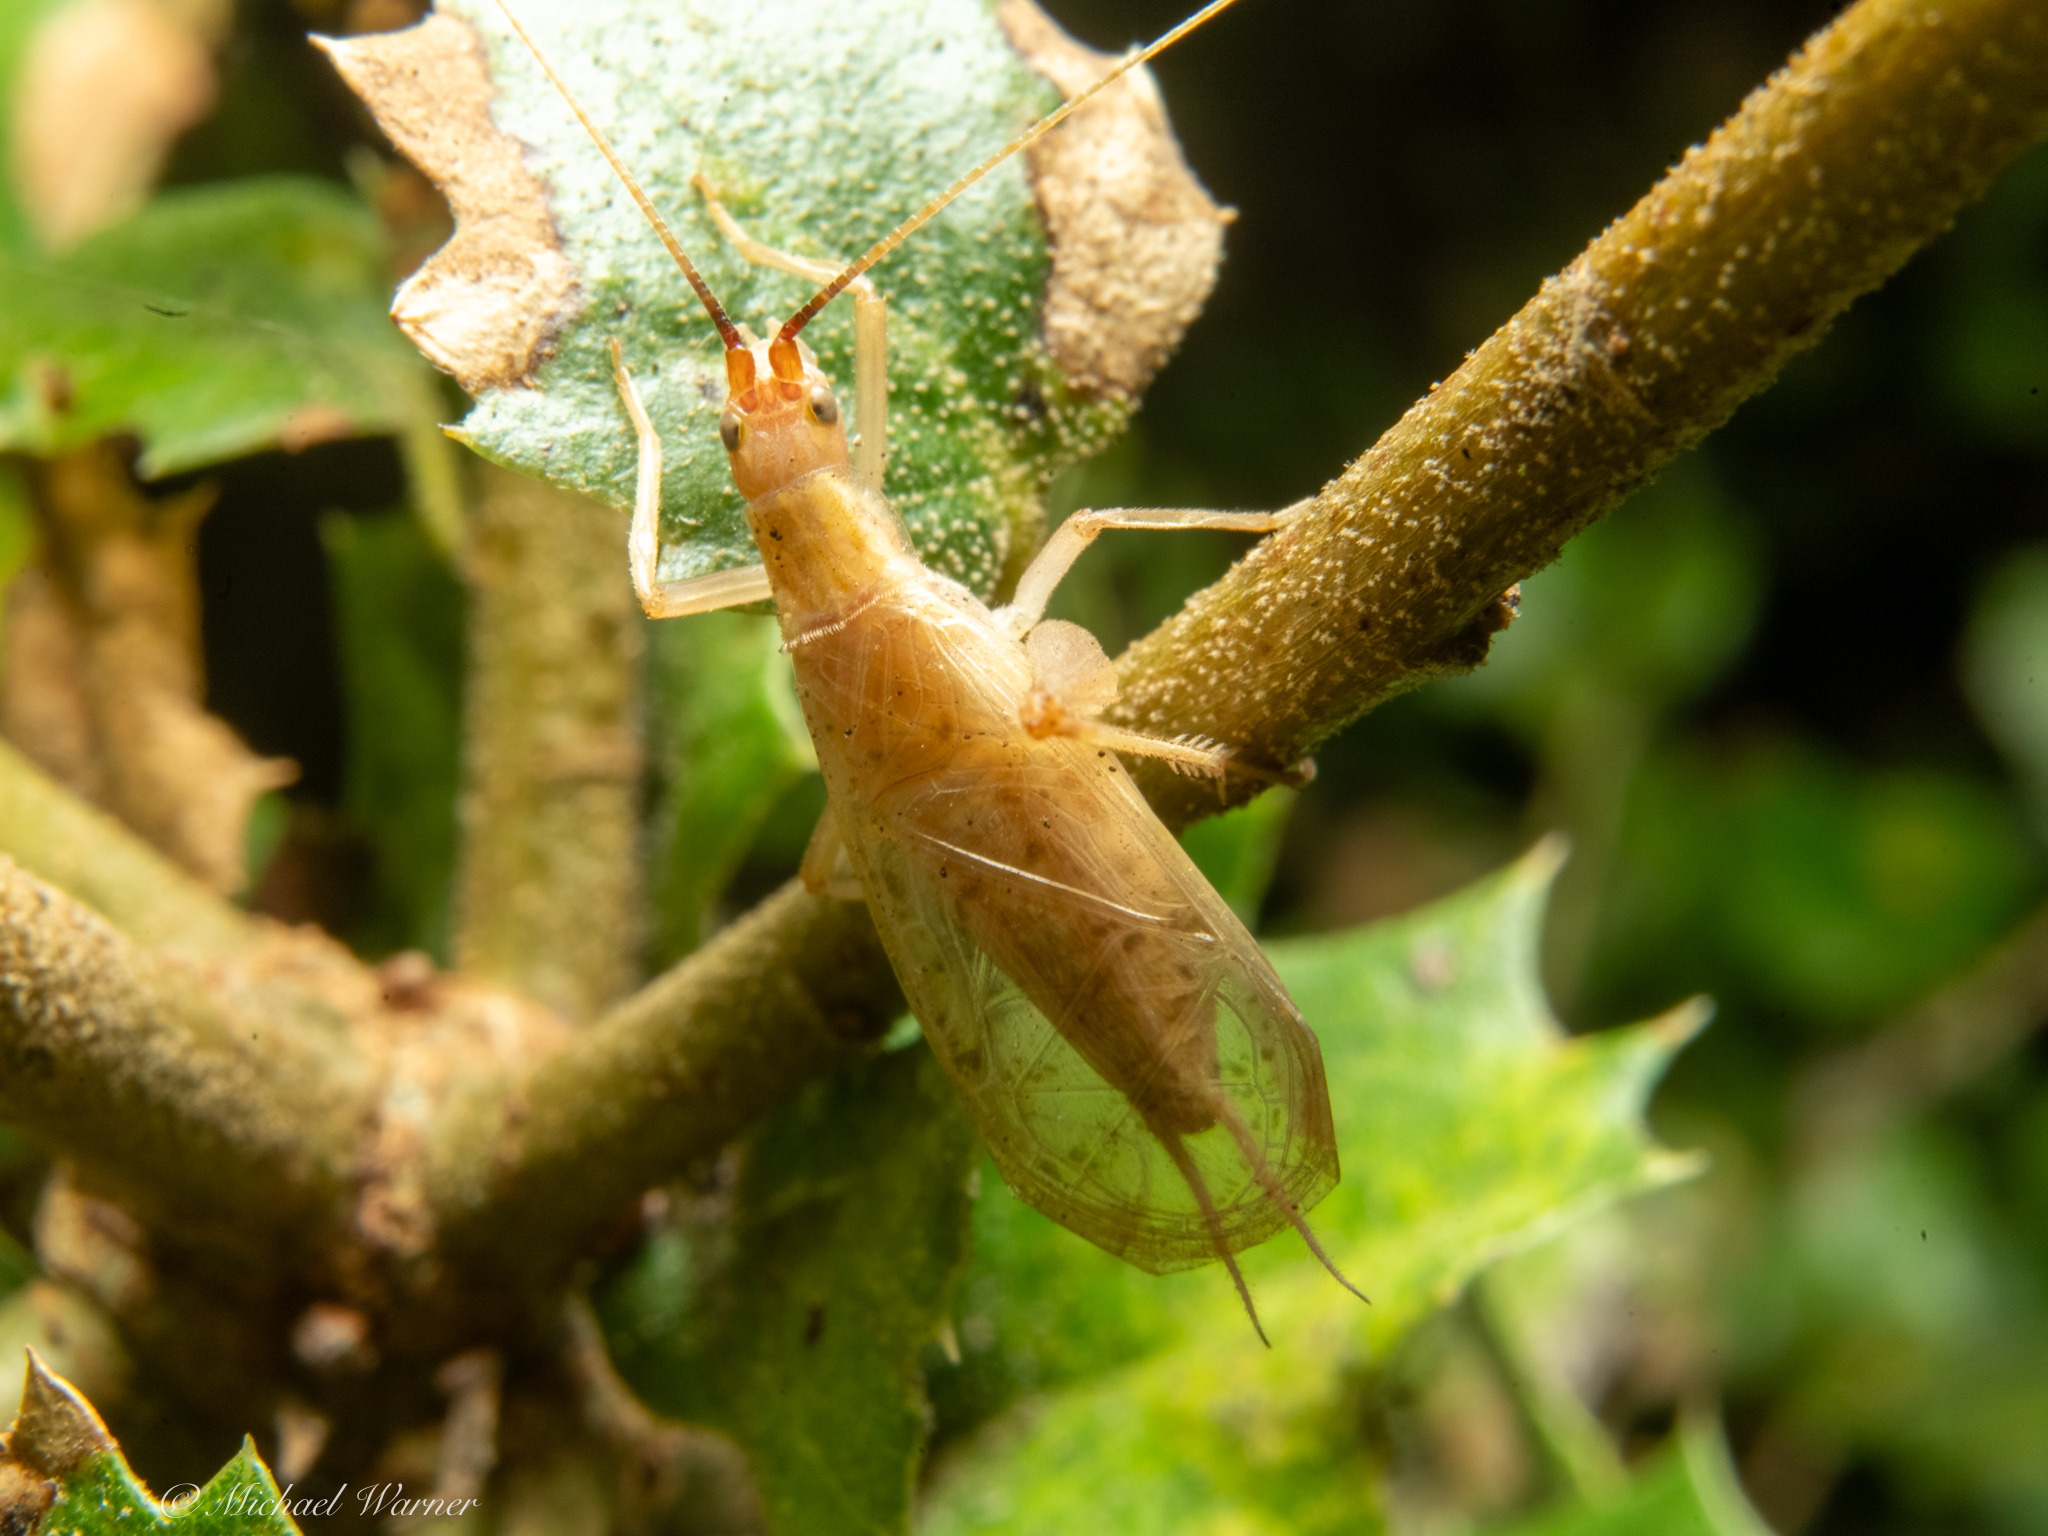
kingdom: Animalia
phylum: Arthropoda
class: Insecta
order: Orthoptera
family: Gryllidae
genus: Oecanthus
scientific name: Oecanthus californicus
